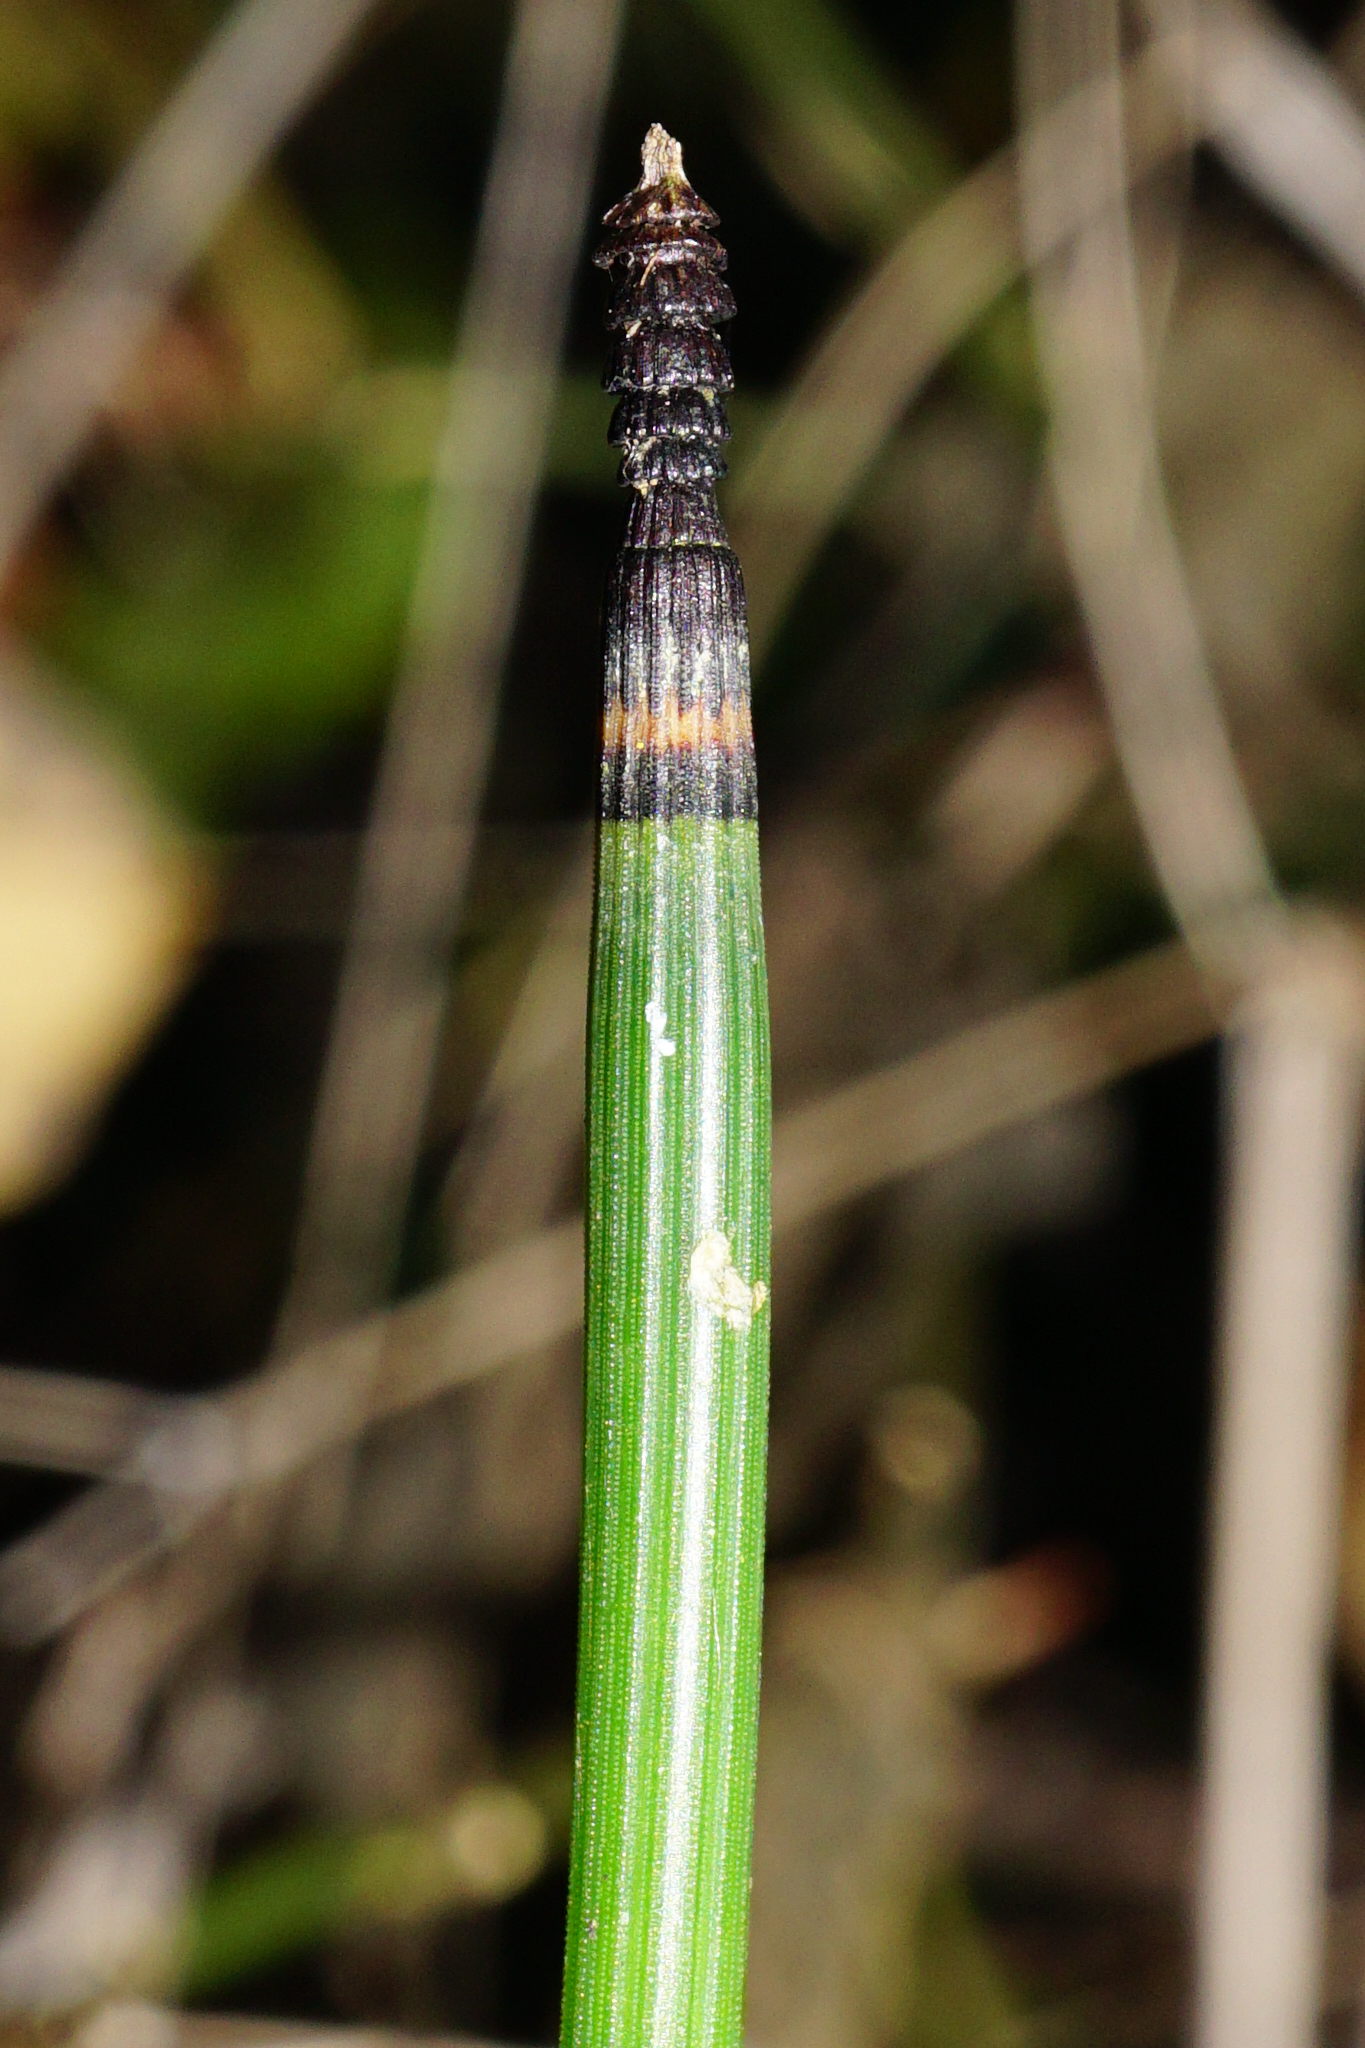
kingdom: Plantae
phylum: Tracheophyta
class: Polypodiopsida
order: Equisetales
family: Equisetaceae
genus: Equisetum
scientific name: Equisetum hyemale
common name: Rough horsetail
